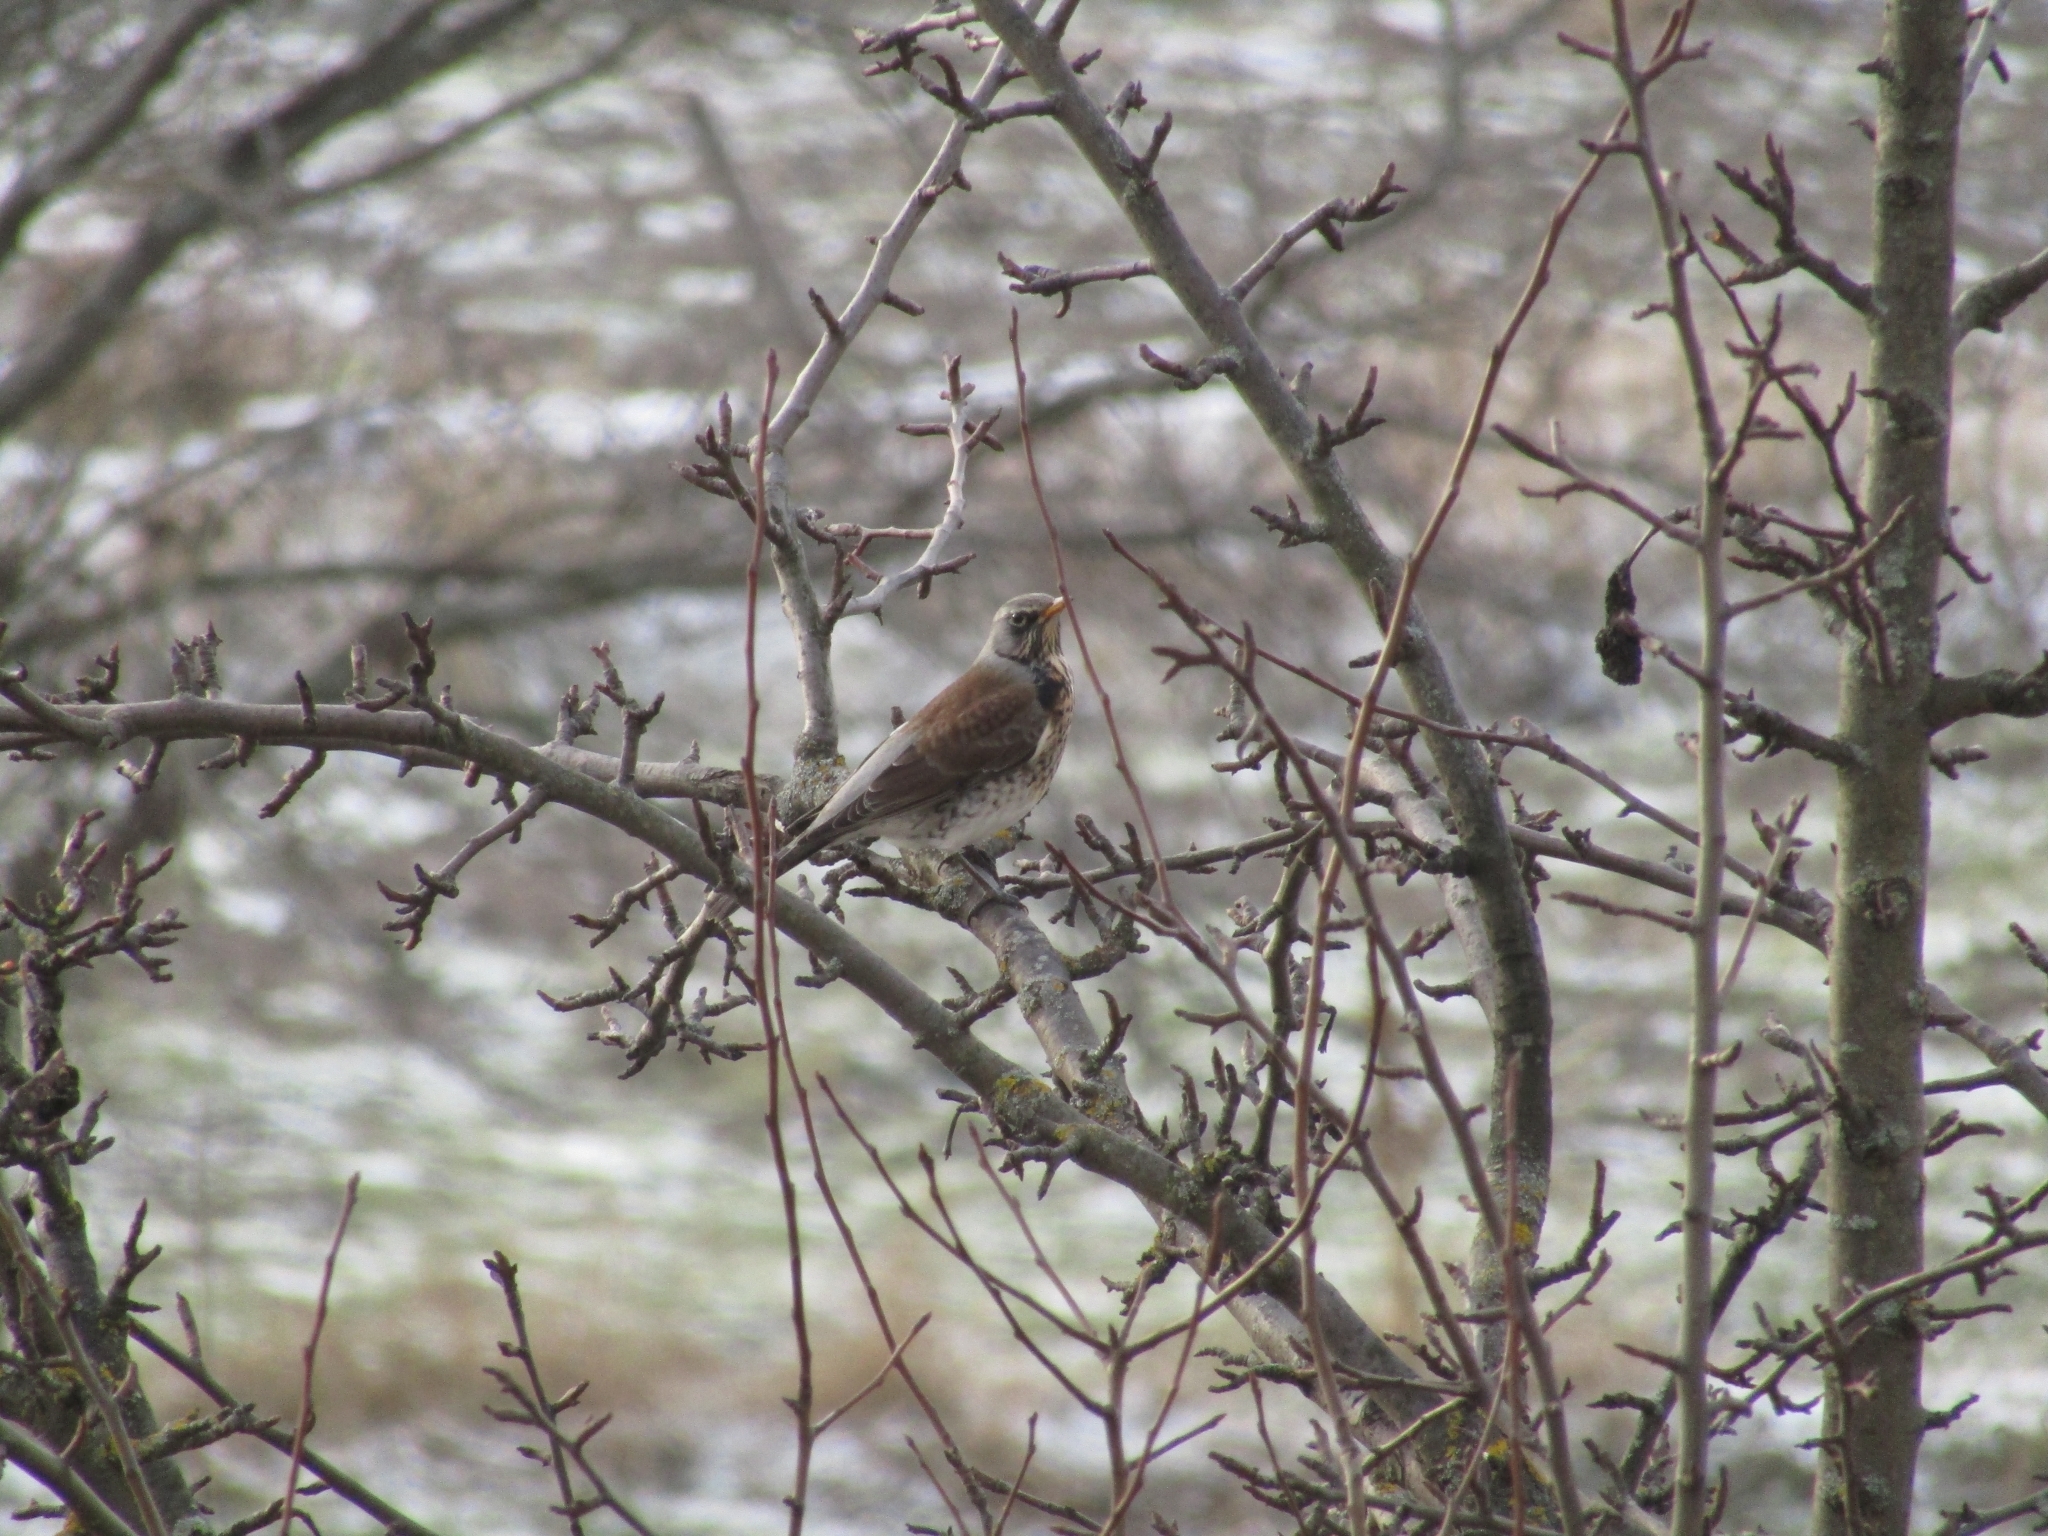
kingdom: Animalia
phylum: Chordata
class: Aves
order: Passeriformes
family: Turdidae
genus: Turdus
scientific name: Turdus pilaris
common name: Fieldfare
